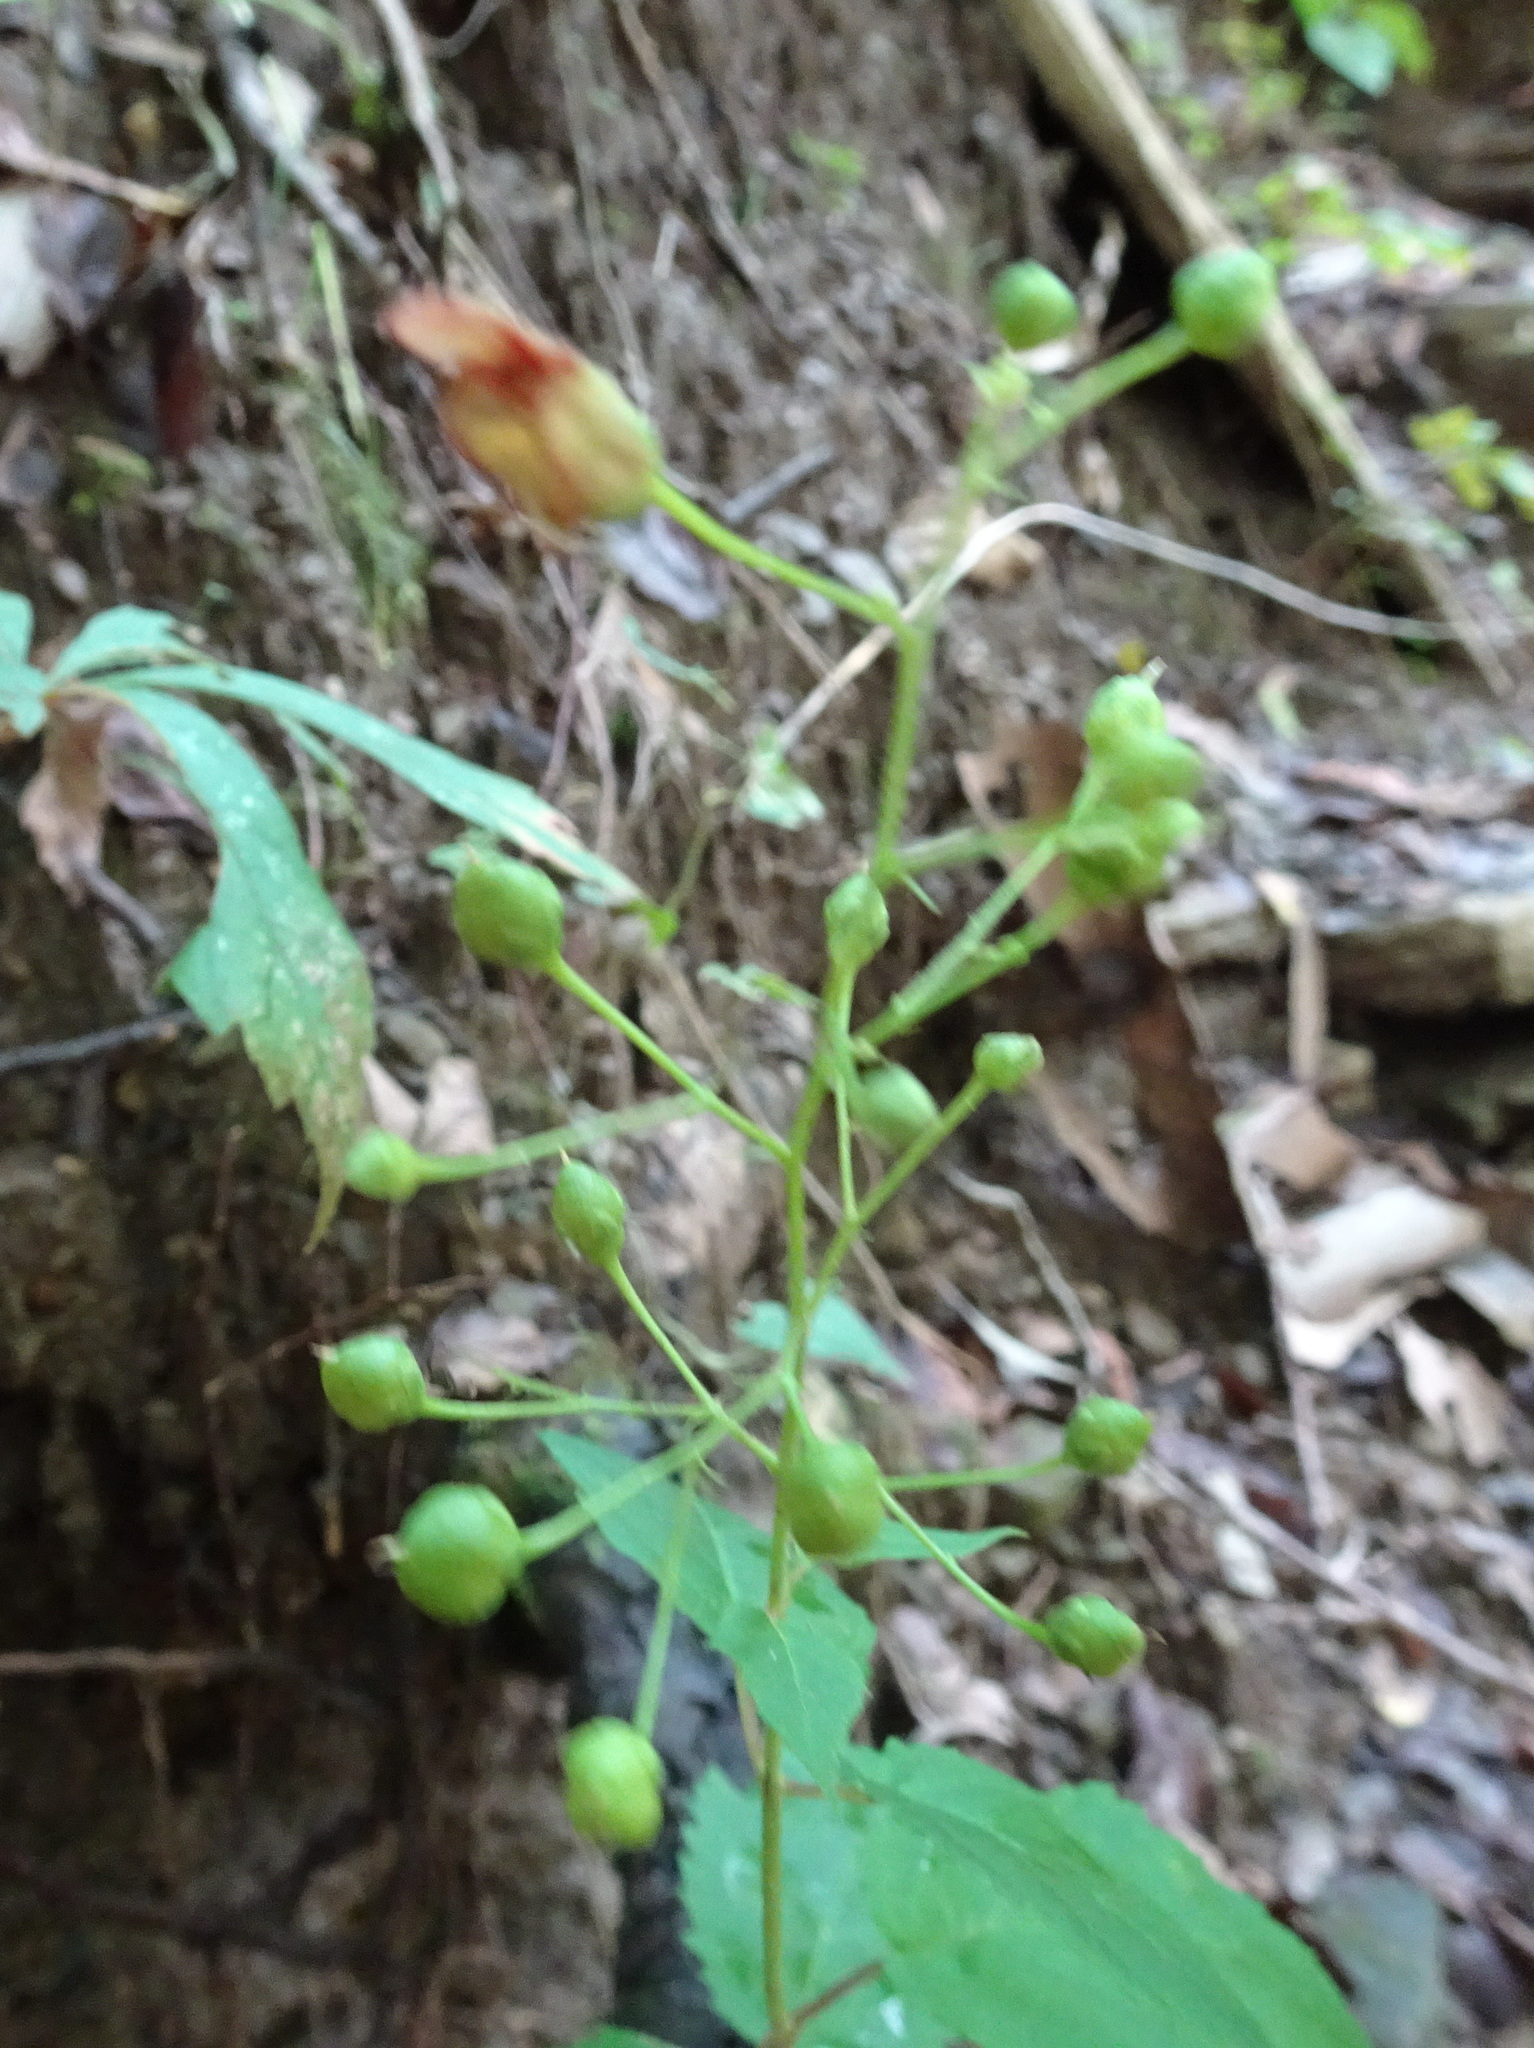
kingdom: Plantae
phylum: Tracheophyta
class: Magnoliopsida
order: Lamiales
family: Scrophulariaceae
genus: Scrophularia
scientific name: Scrophularia marilandica
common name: Eastern figwort
